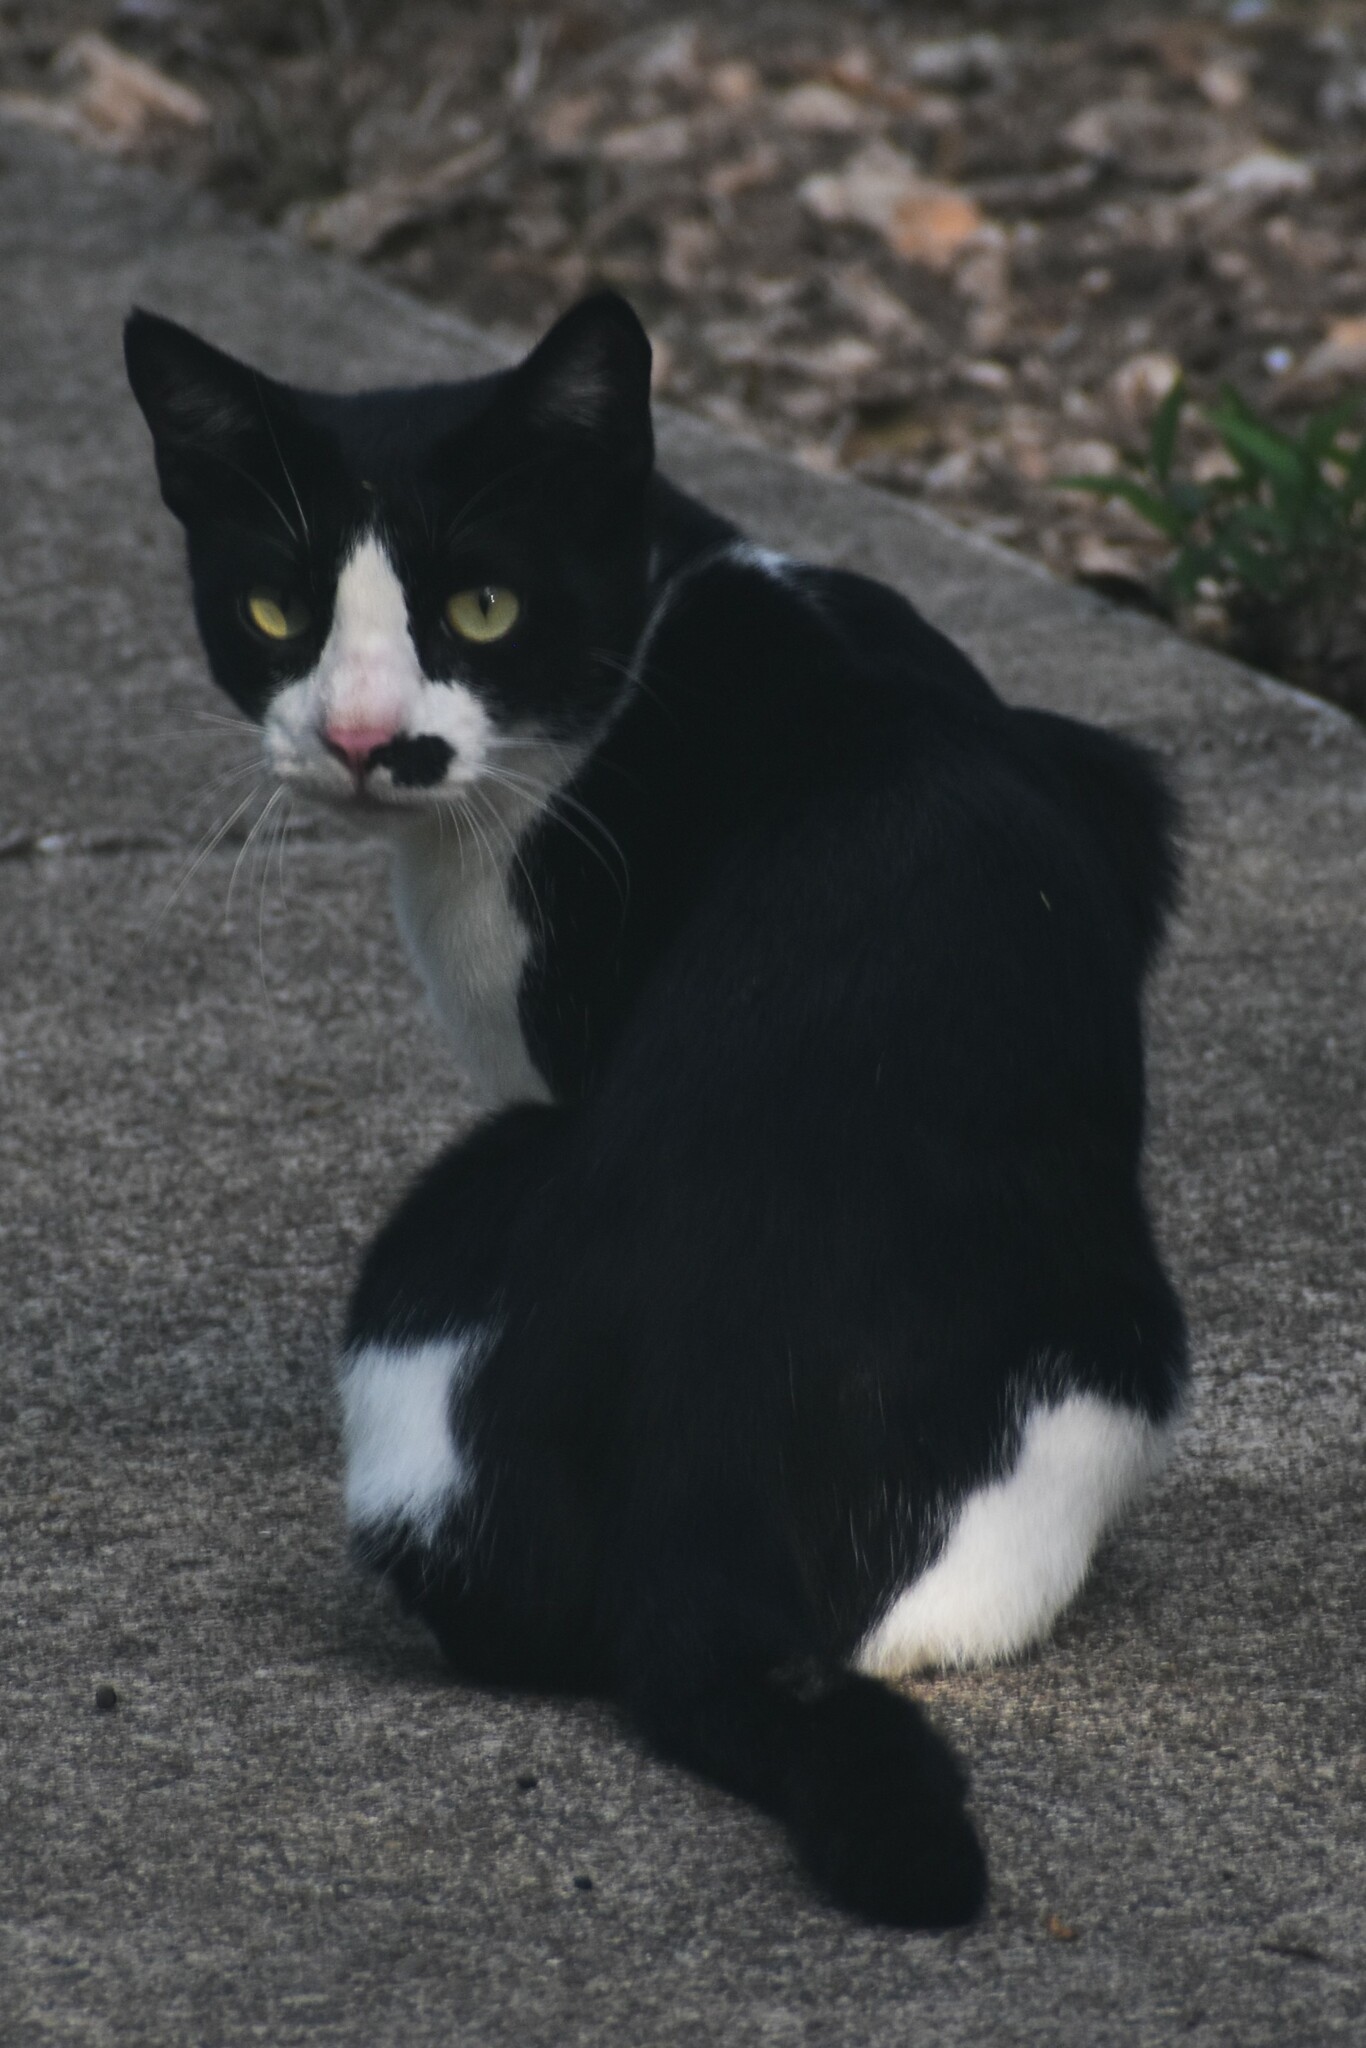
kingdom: Animalia
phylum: Chordata
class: Mammalia
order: Carnivora
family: Felidae
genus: Felis
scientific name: Felis catus
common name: Domestic cat
